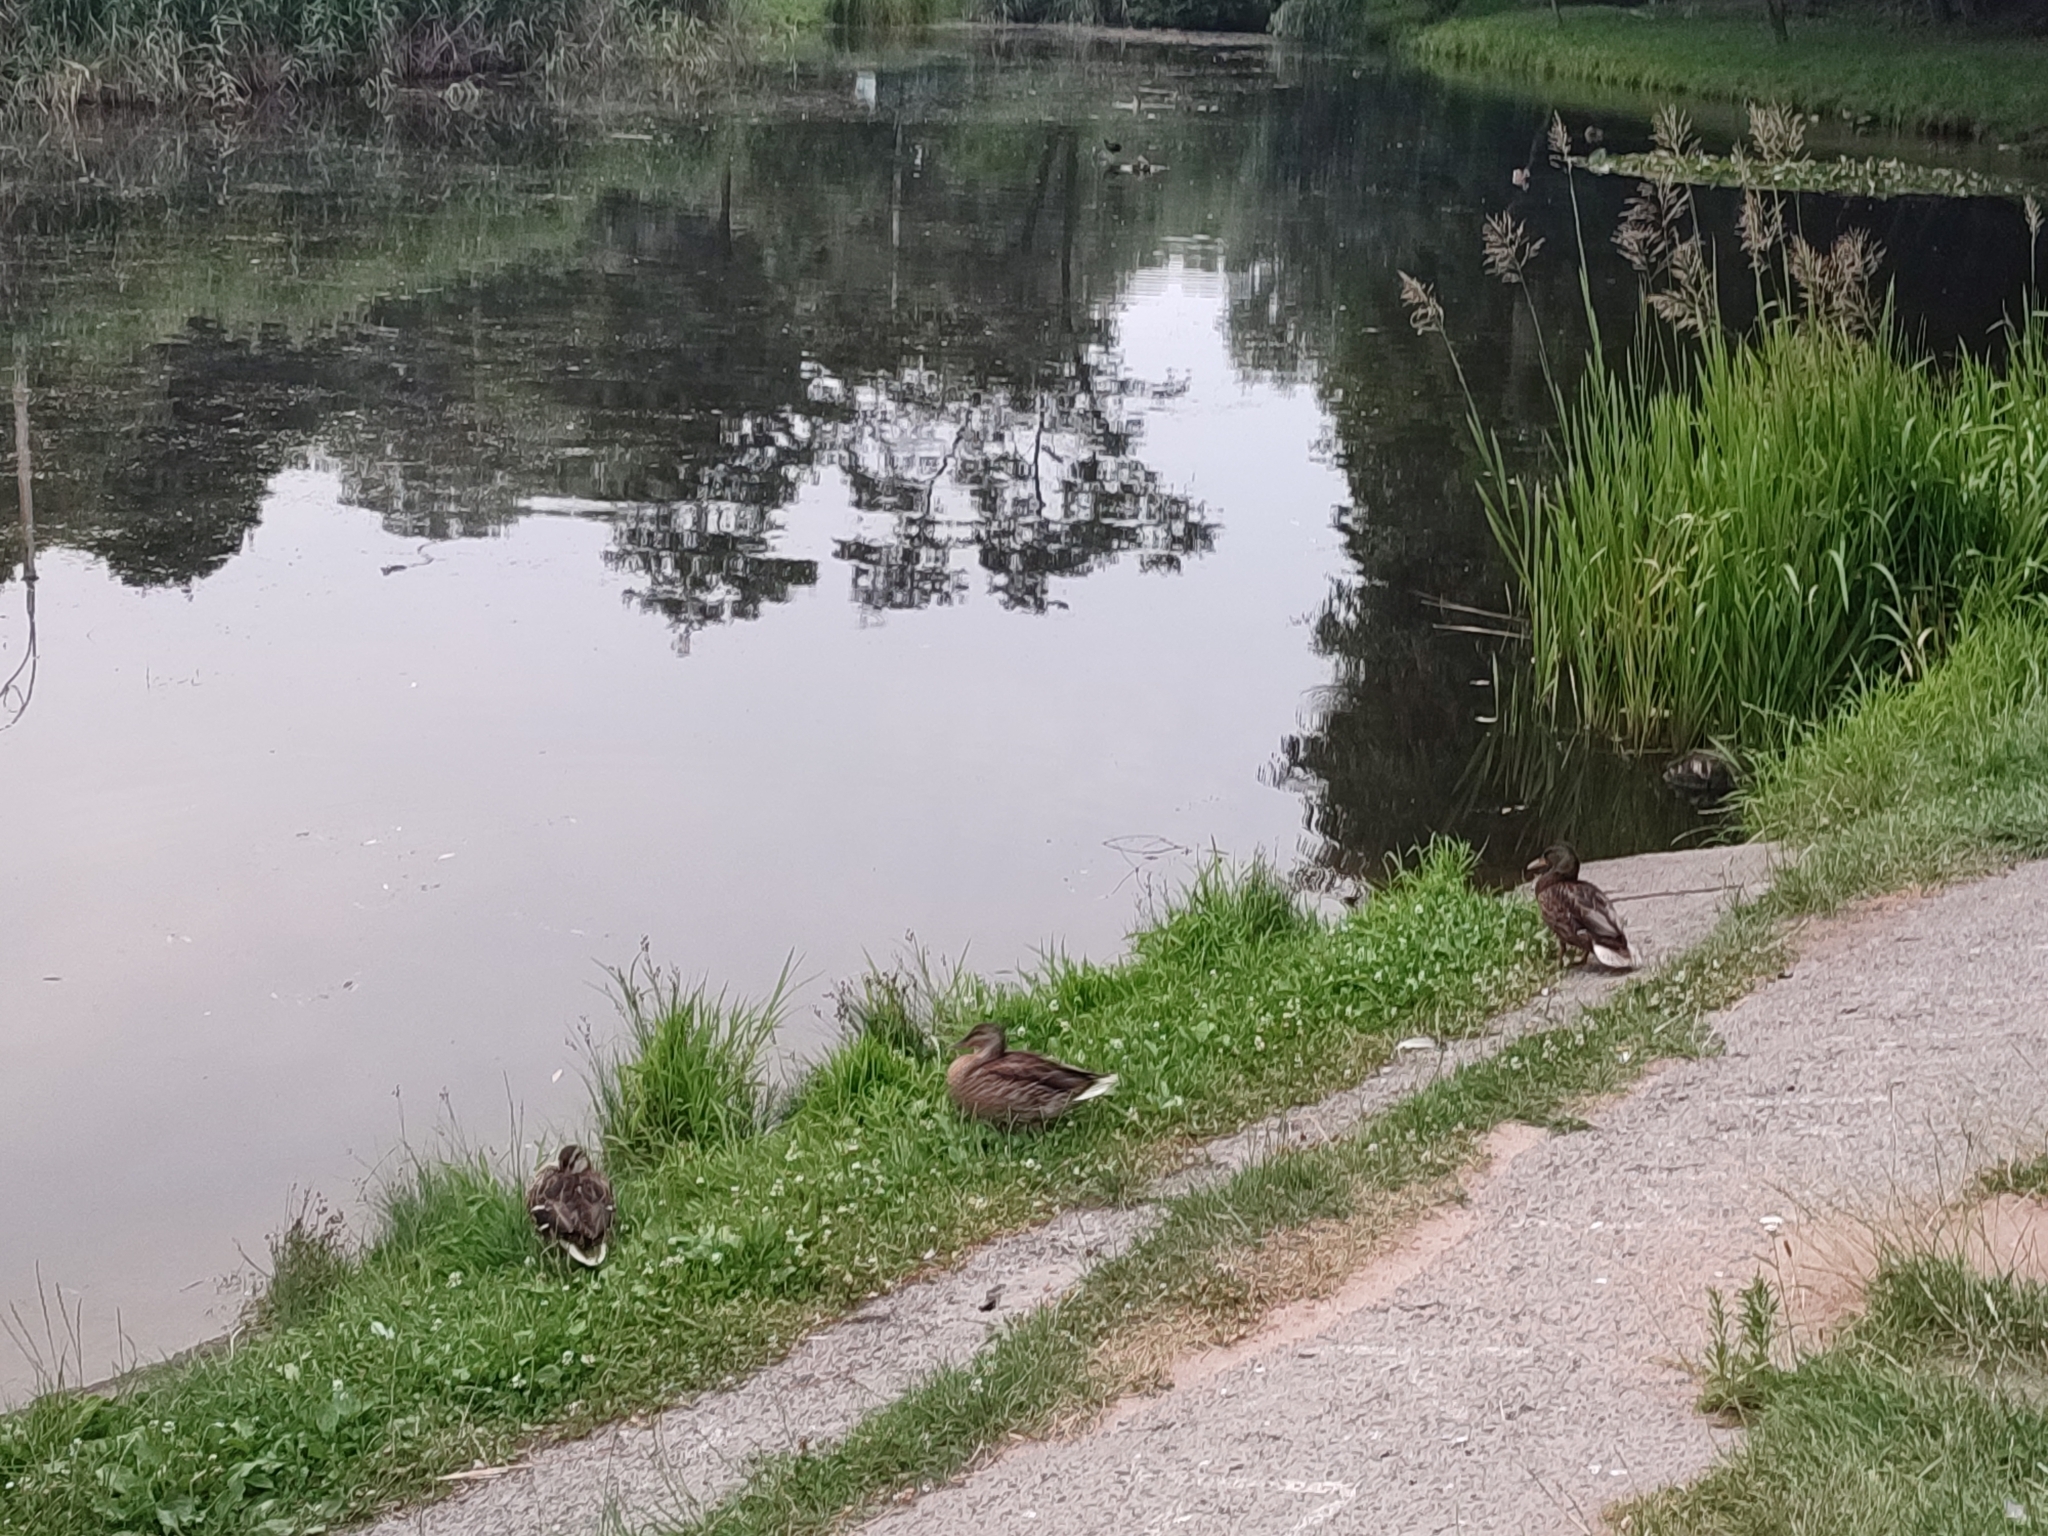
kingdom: Animalia
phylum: Chordata
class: Aves
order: Anseriformes
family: Anatidae
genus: Anas
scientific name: Anas platyrhynchos
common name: Mallard
